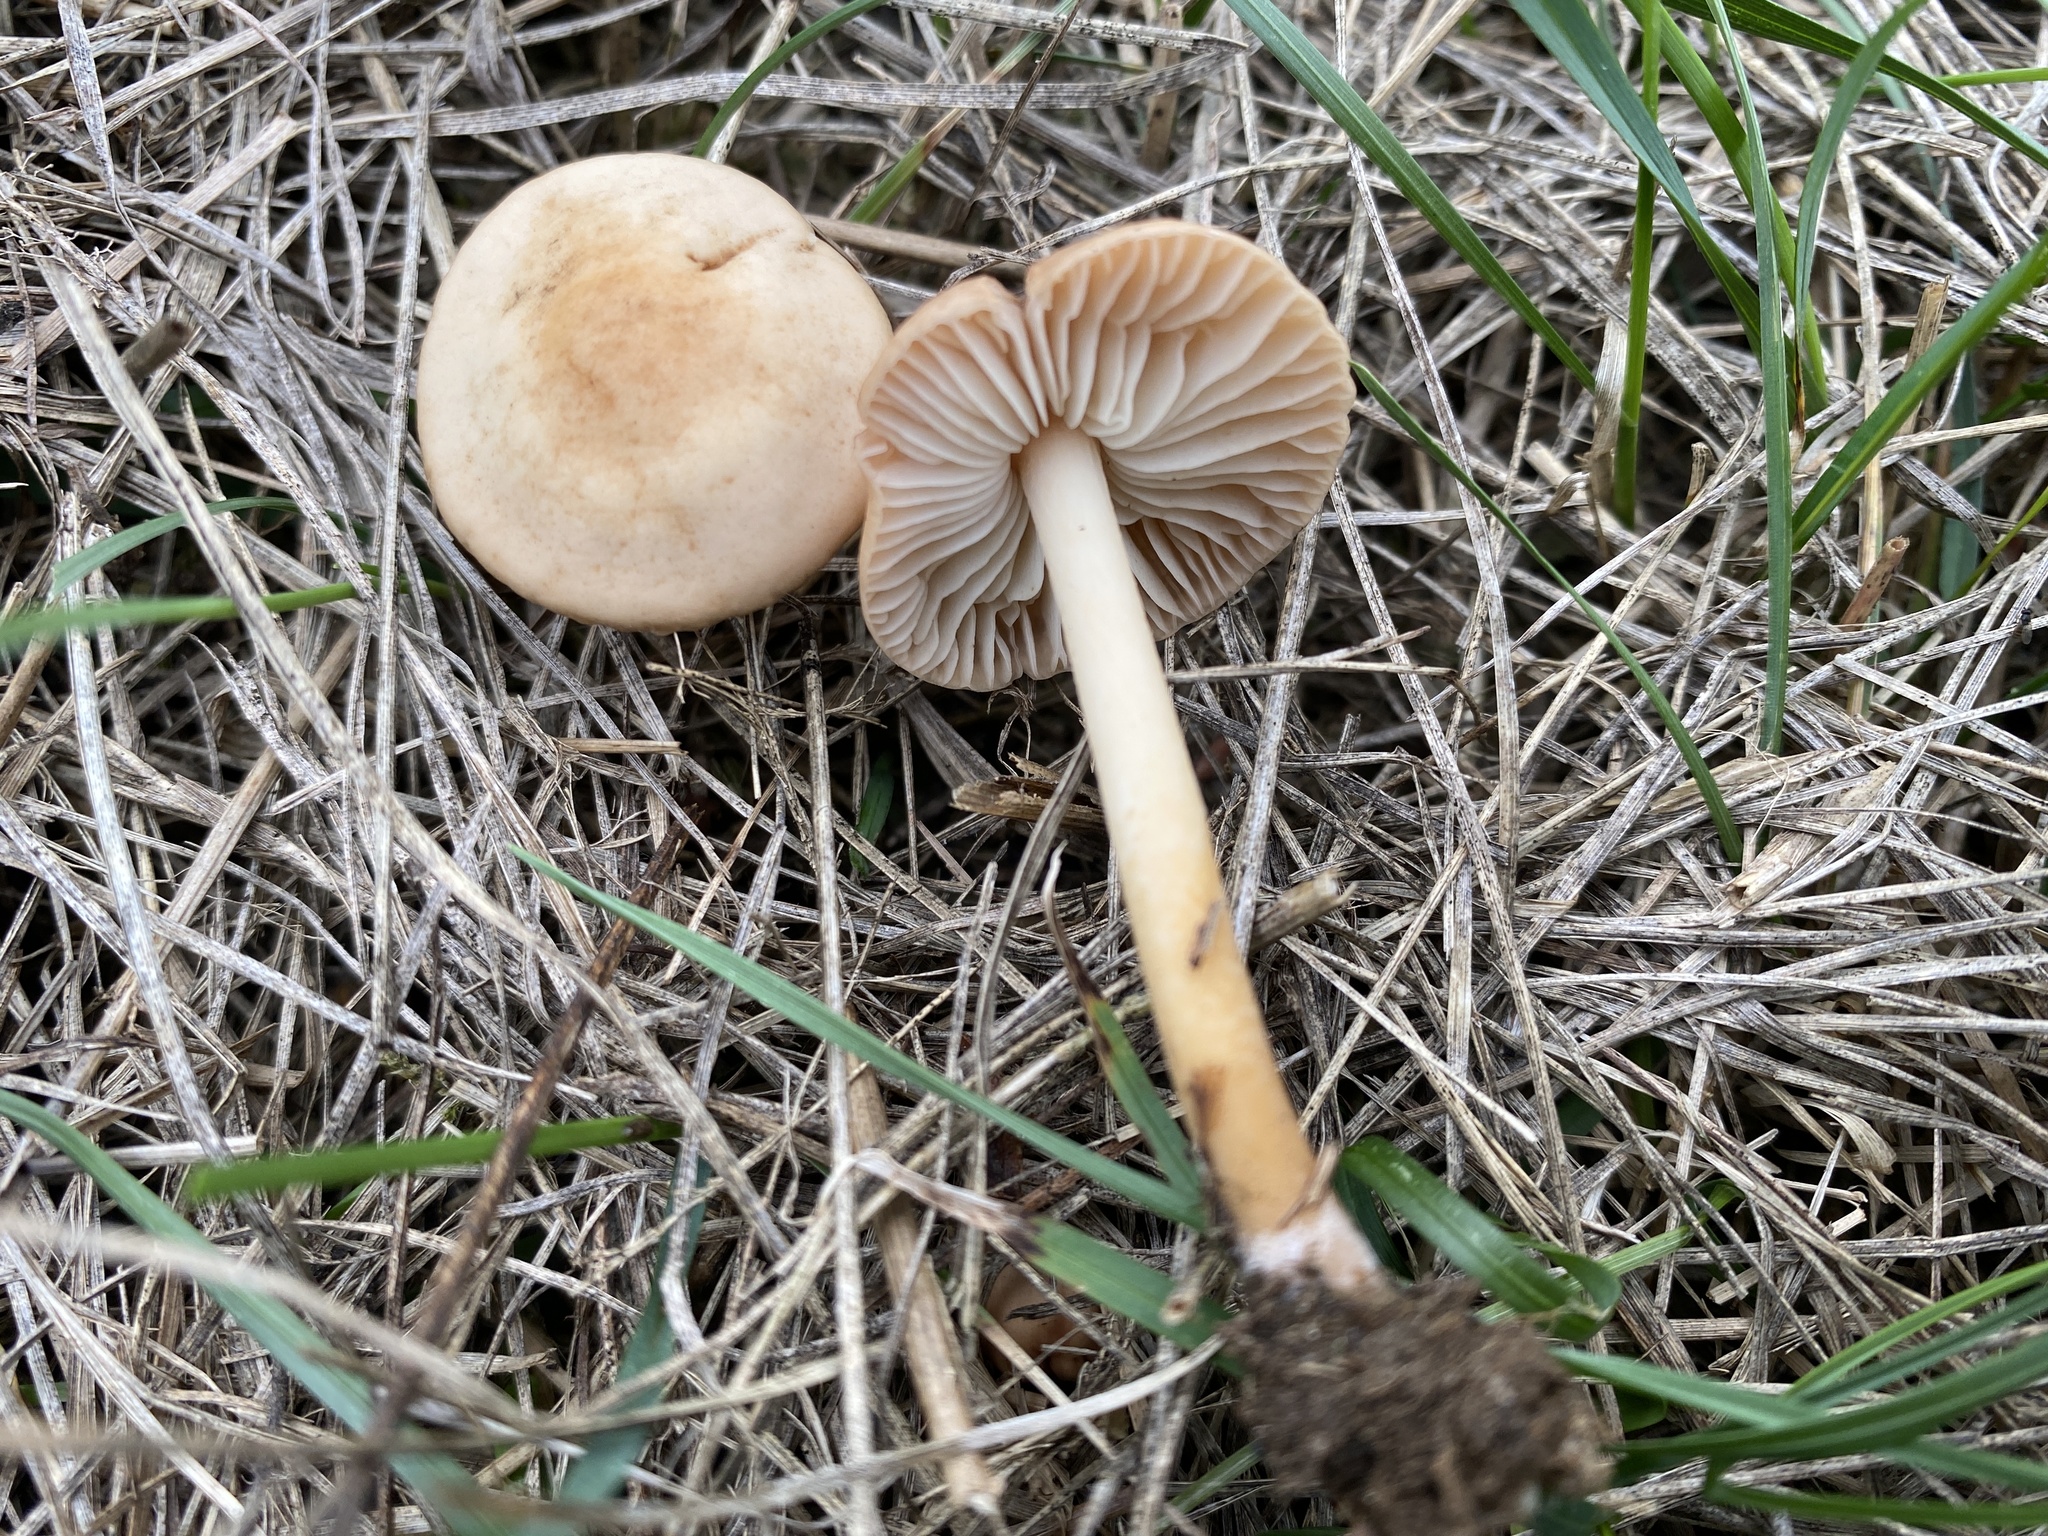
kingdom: Fungi
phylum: Basidiomycota
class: Agaricomycetes
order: Agaricales
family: Marasmiaceae
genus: Marasmius
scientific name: Marasmius oreades
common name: Fairy ring champignon
